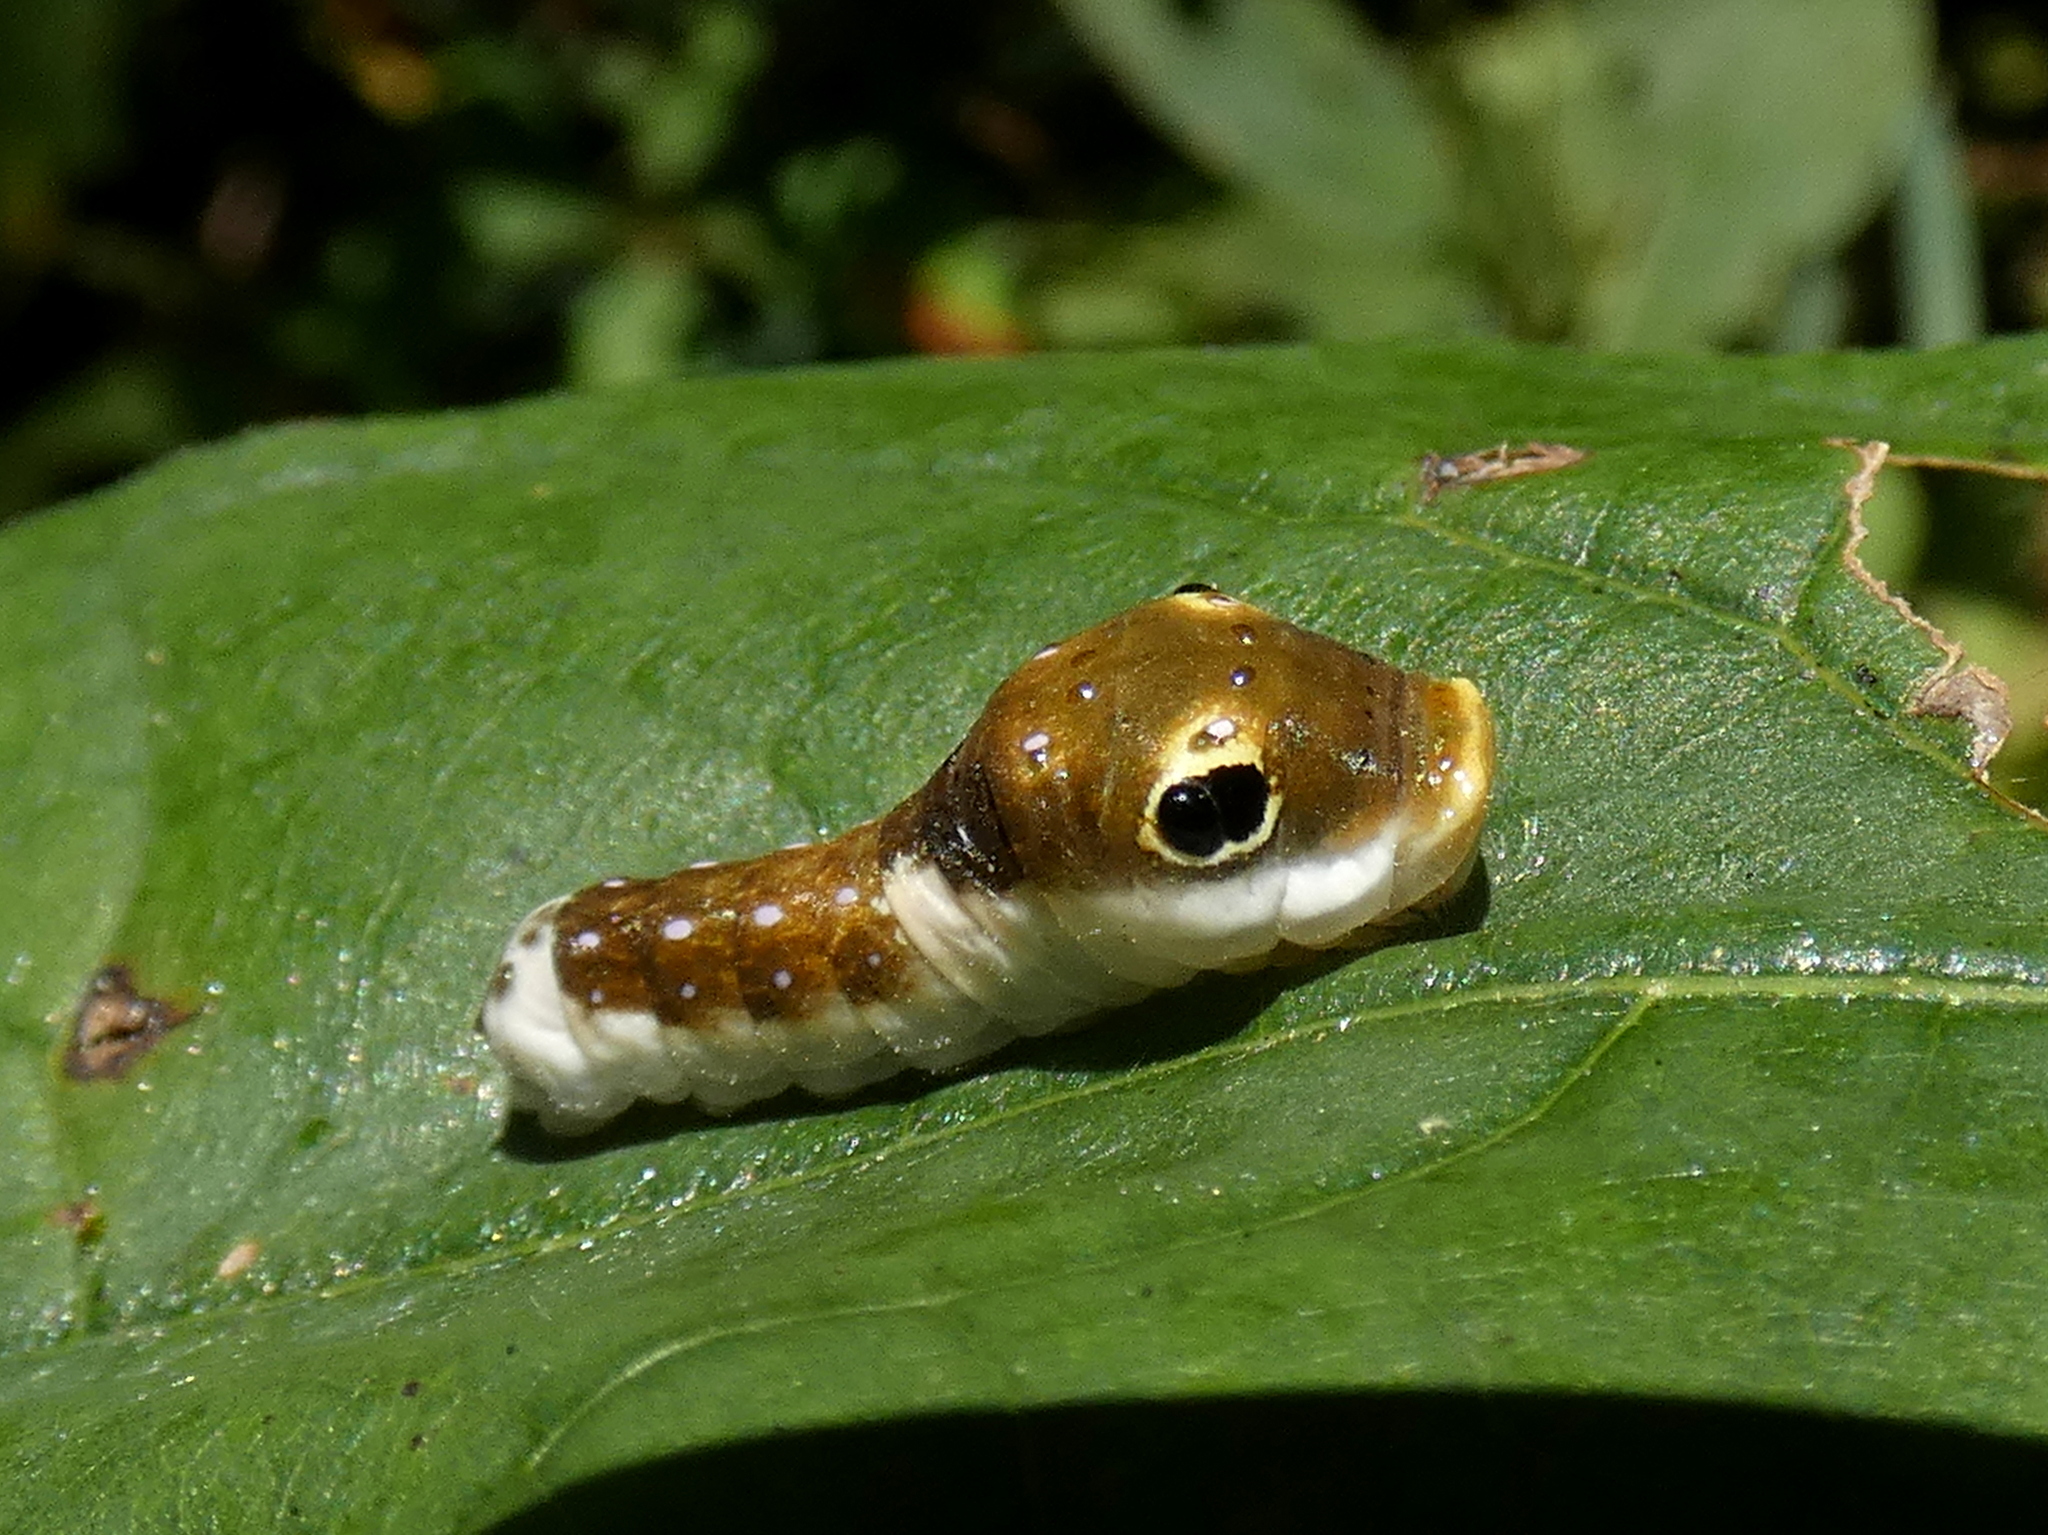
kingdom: Animalia
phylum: Arthropoda
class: Insecta
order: Lepidoptera
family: Papilionidae
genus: Papilio
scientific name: Papilio troilus
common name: Spicebush swallowtail
